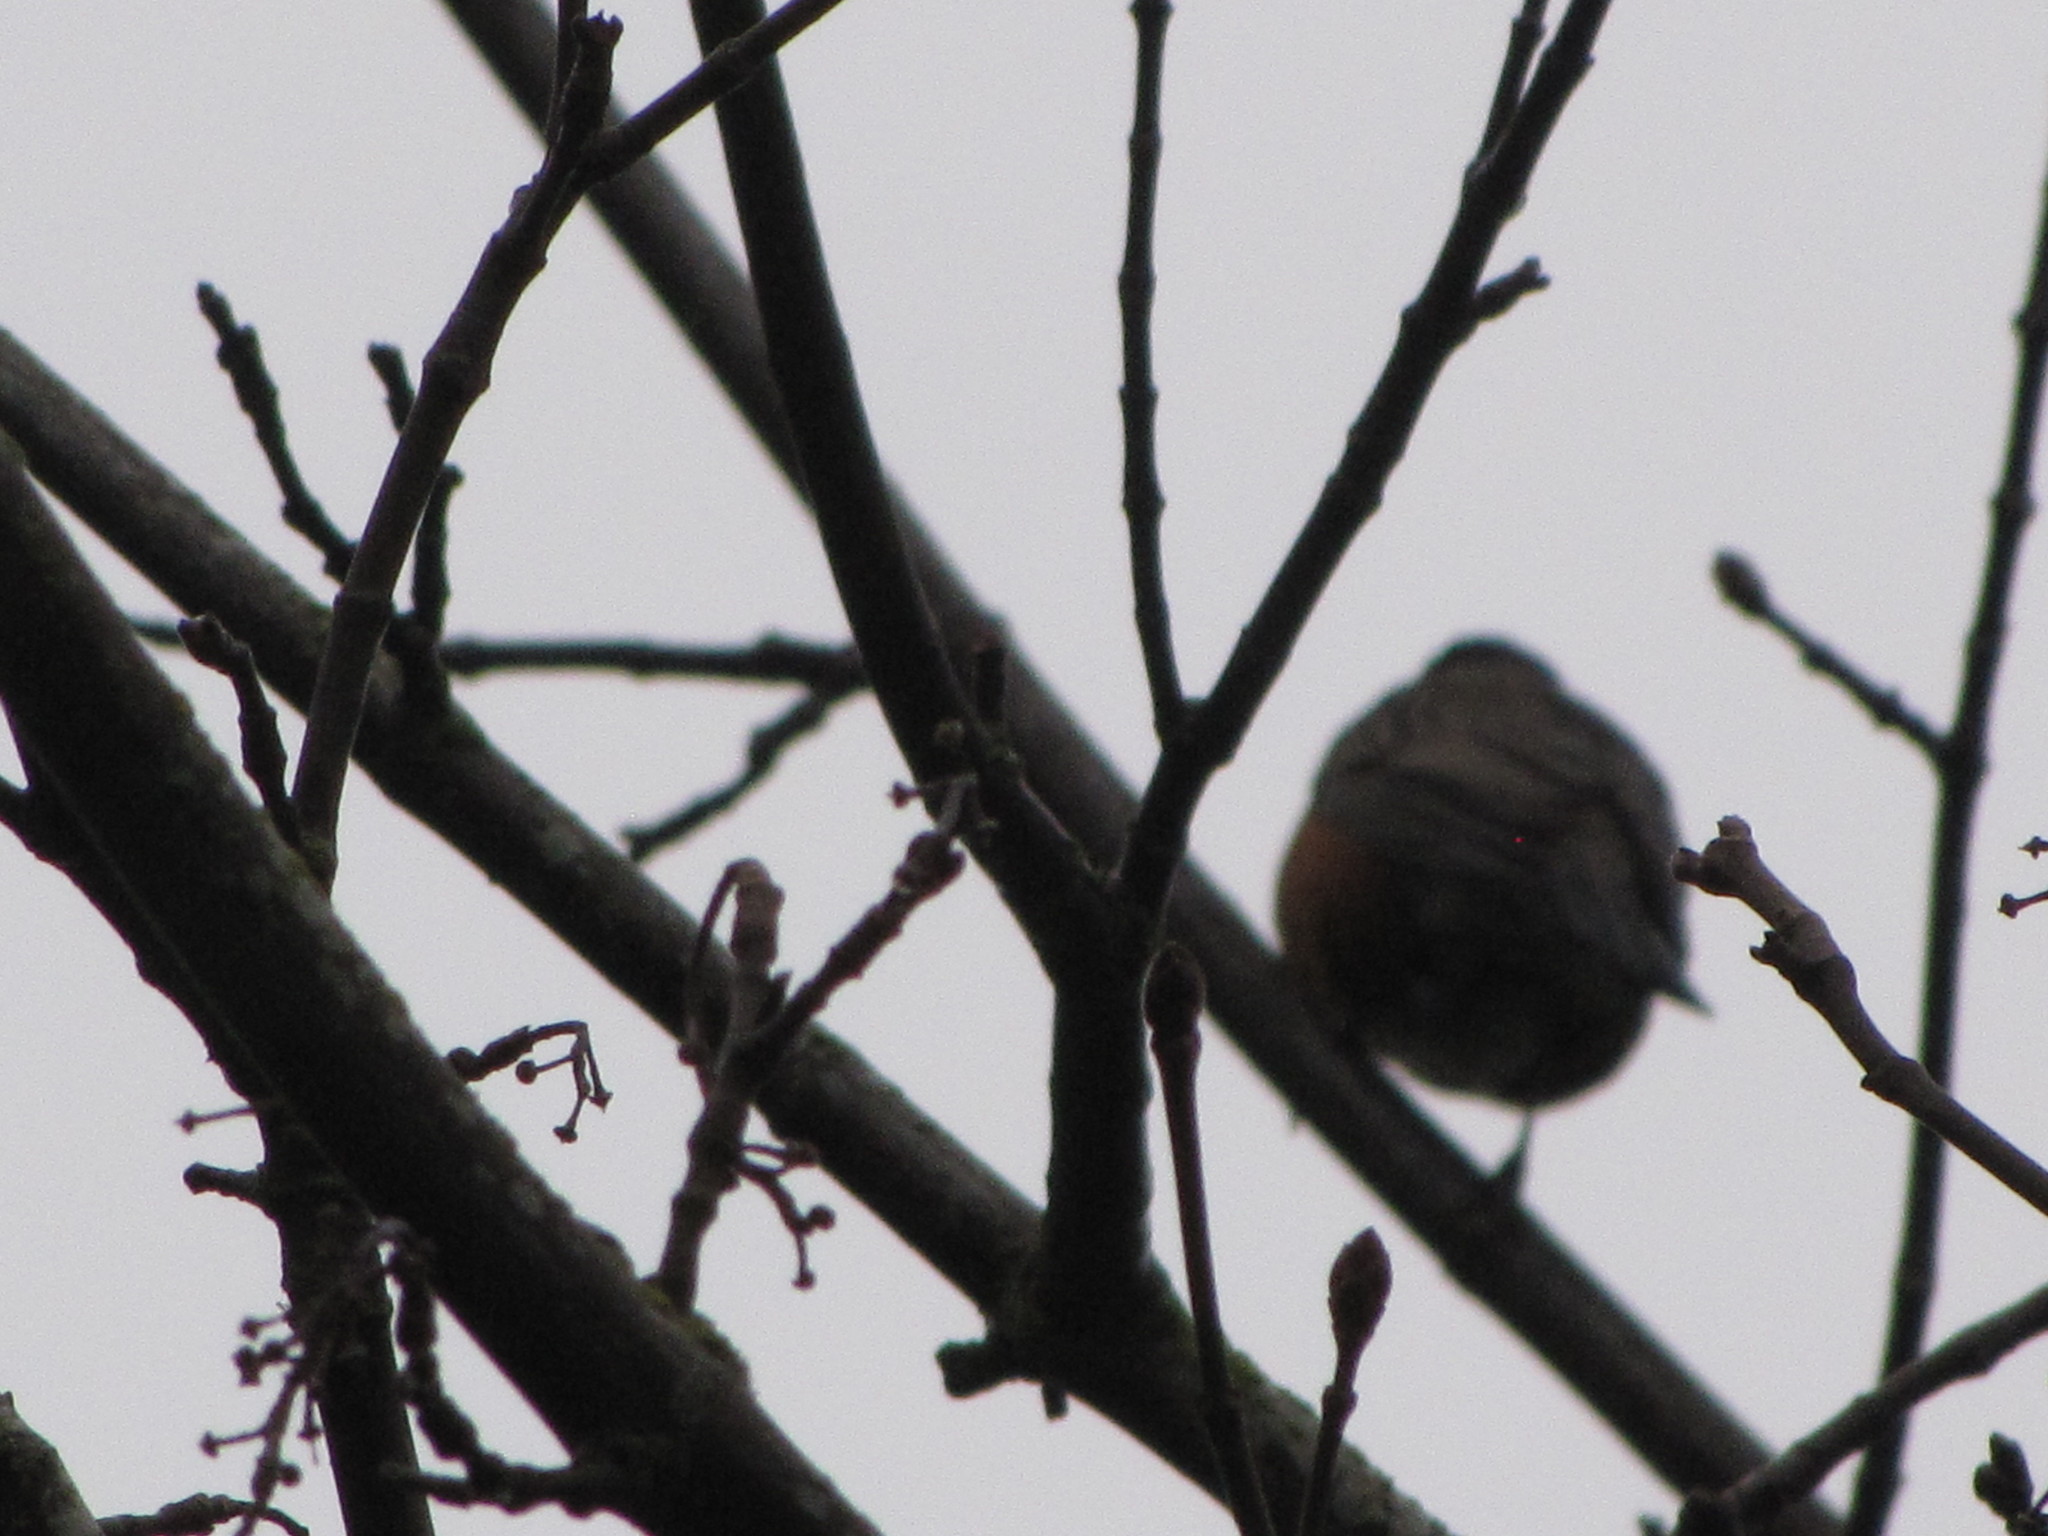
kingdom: Animalia
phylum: Chordata
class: Aves
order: Passeriformes
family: Turdidae
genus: Turdus
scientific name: Turdus migratorius
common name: American robin
